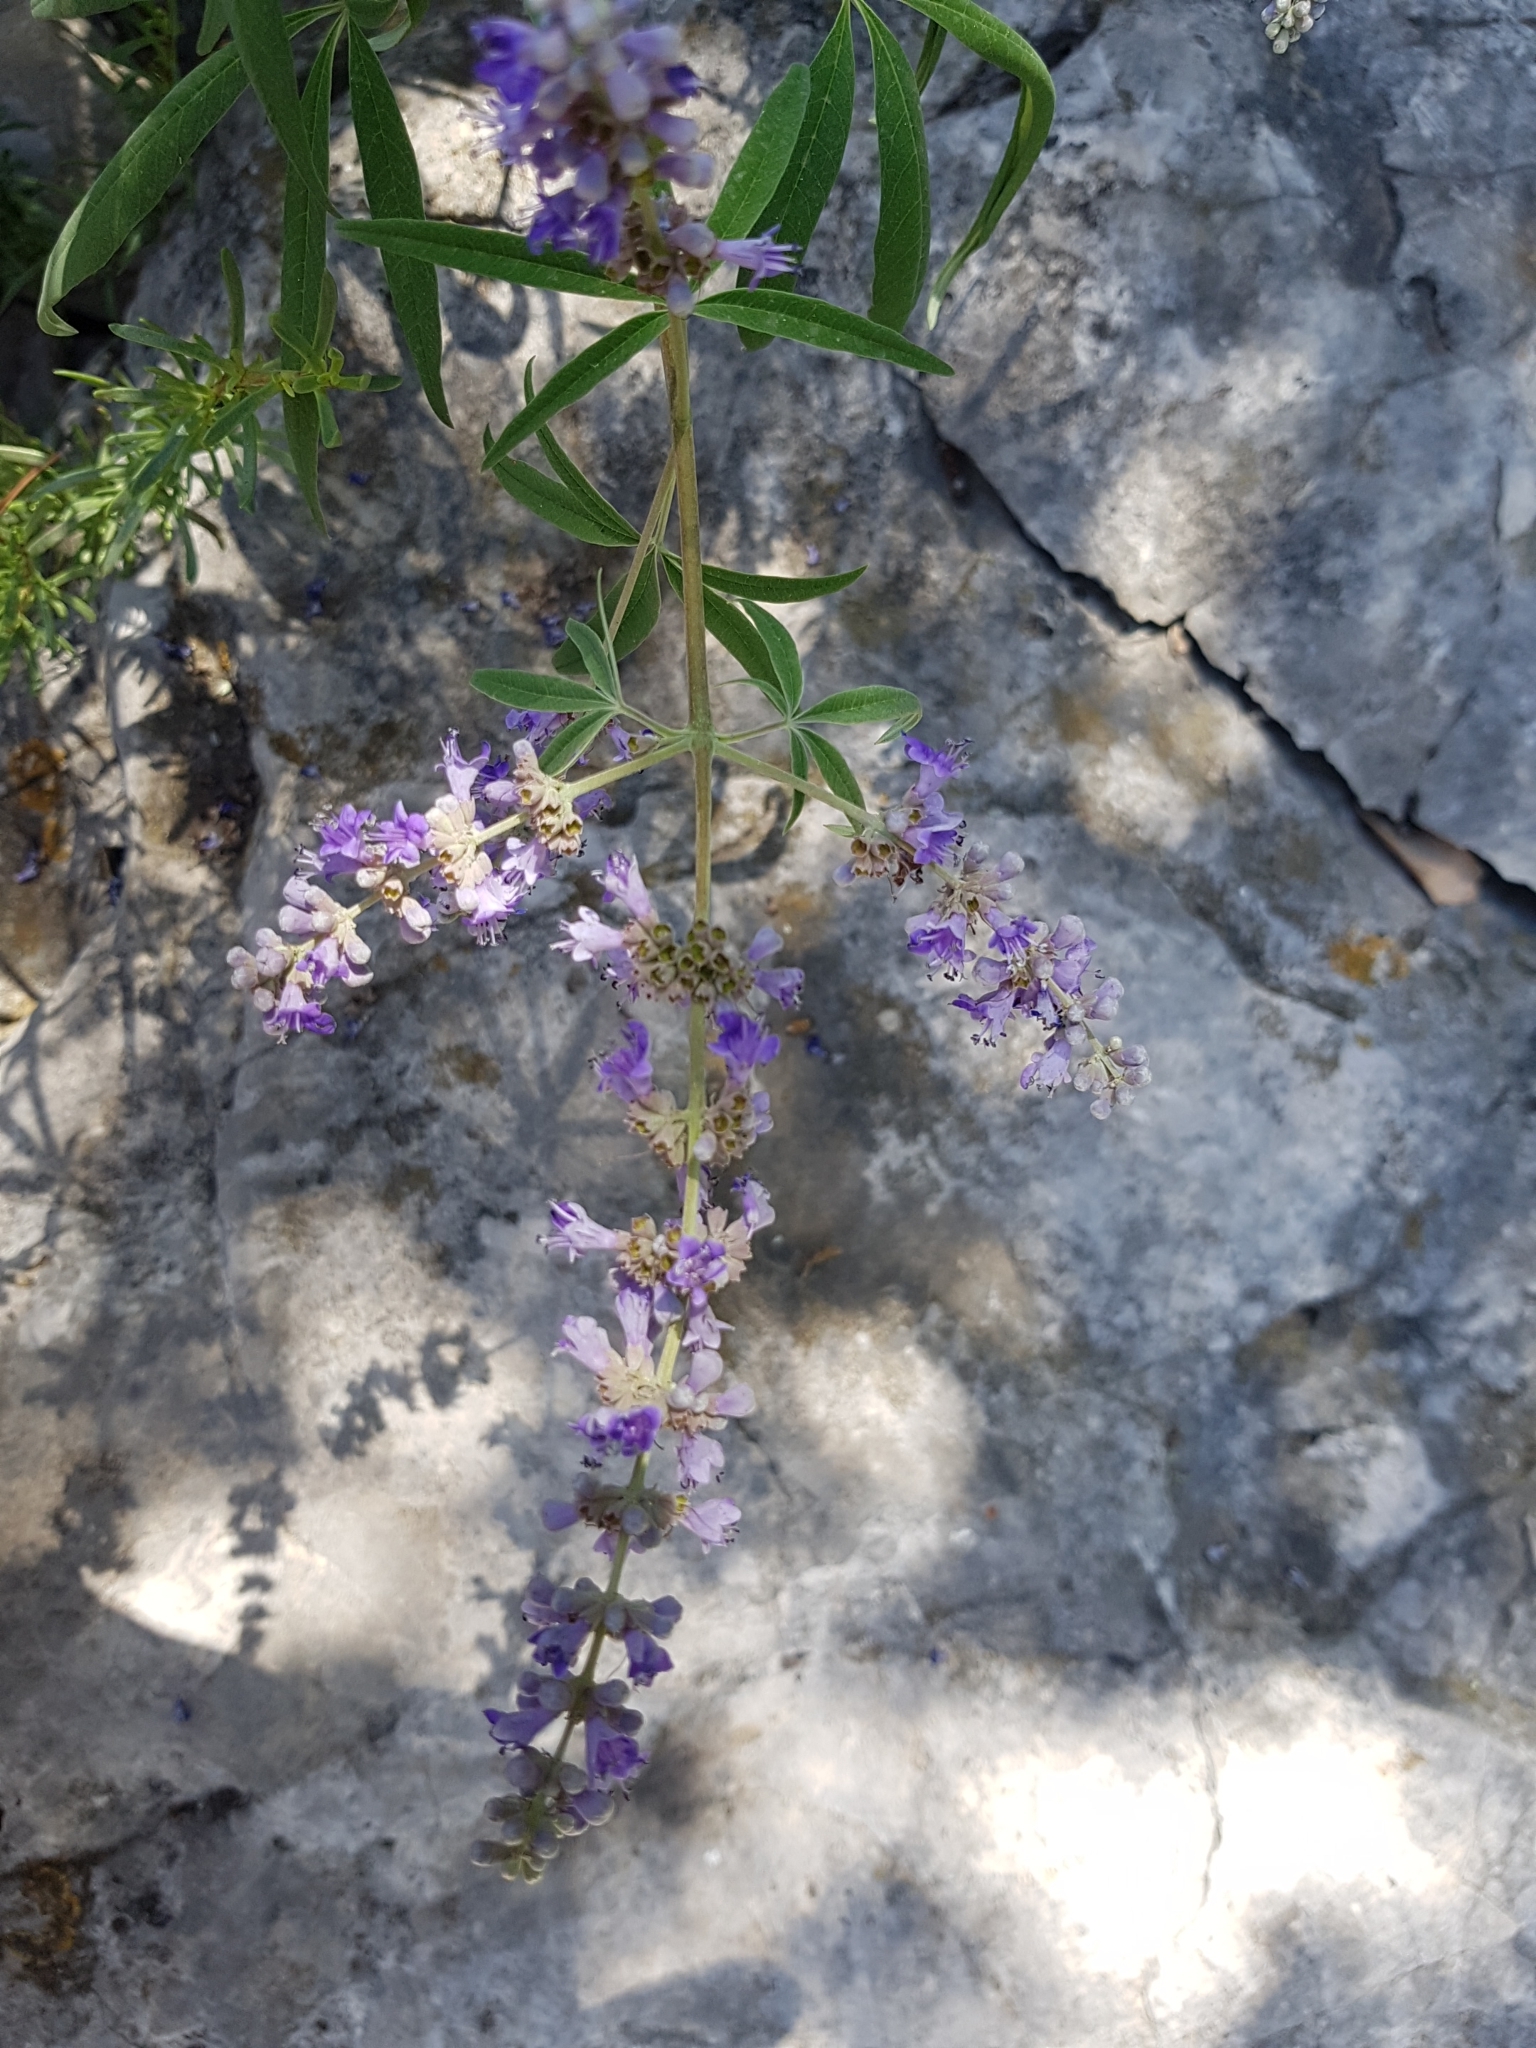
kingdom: Plantae
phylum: Tracheophyta
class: Magnoliopsida
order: Lamiales
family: Lamiaceae
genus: Vitex
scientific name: Vitex agnus-castus
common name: Chasteberry
